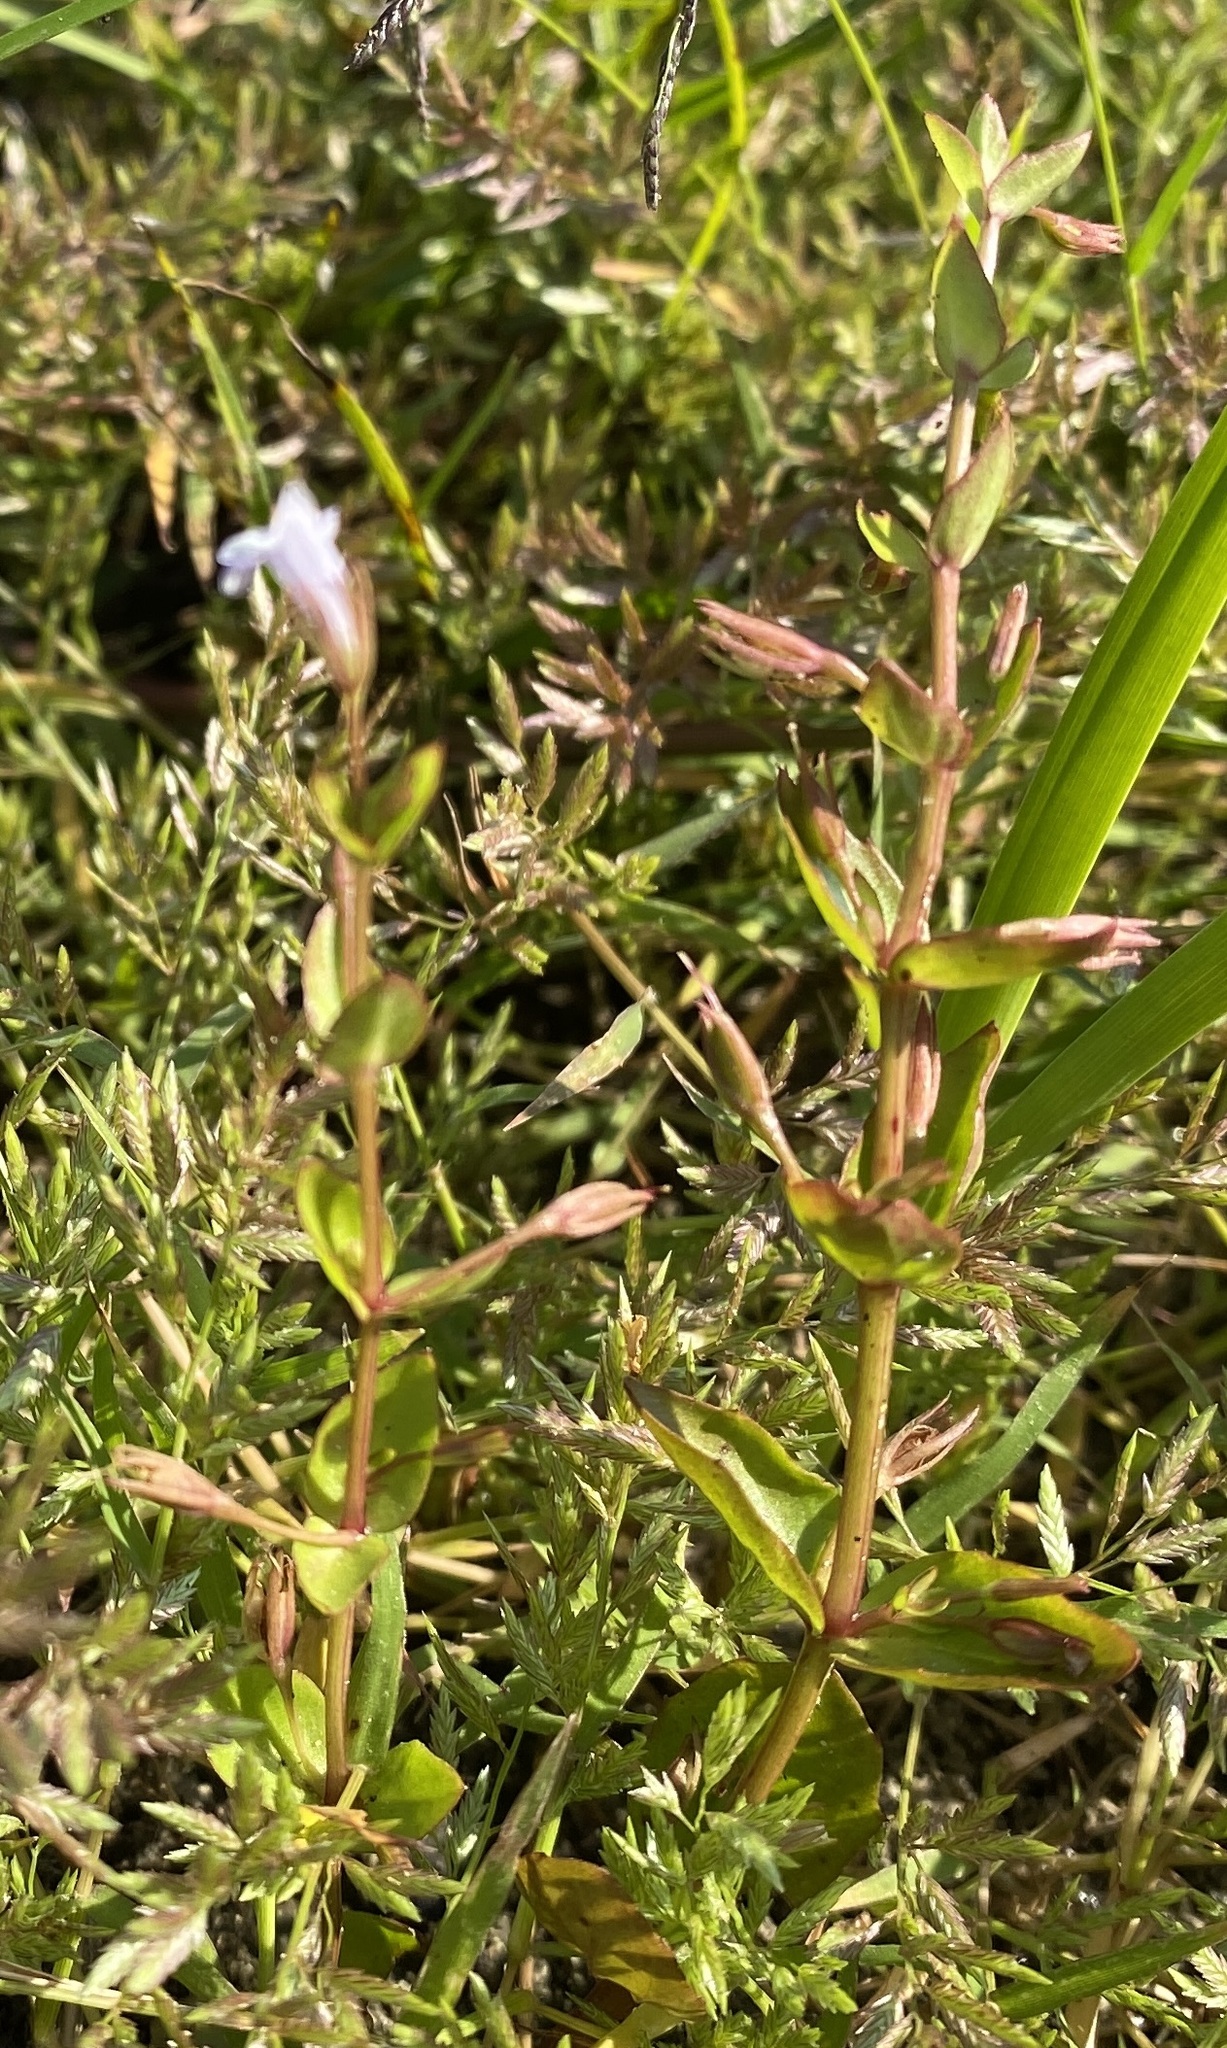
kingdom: Plantae
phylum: Tracheophyta
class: Magnoliopsida
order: Lamiales
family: Linderniaceae
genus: Lindernia
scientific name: Lindernia dubia
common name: Annual false pimpernel
